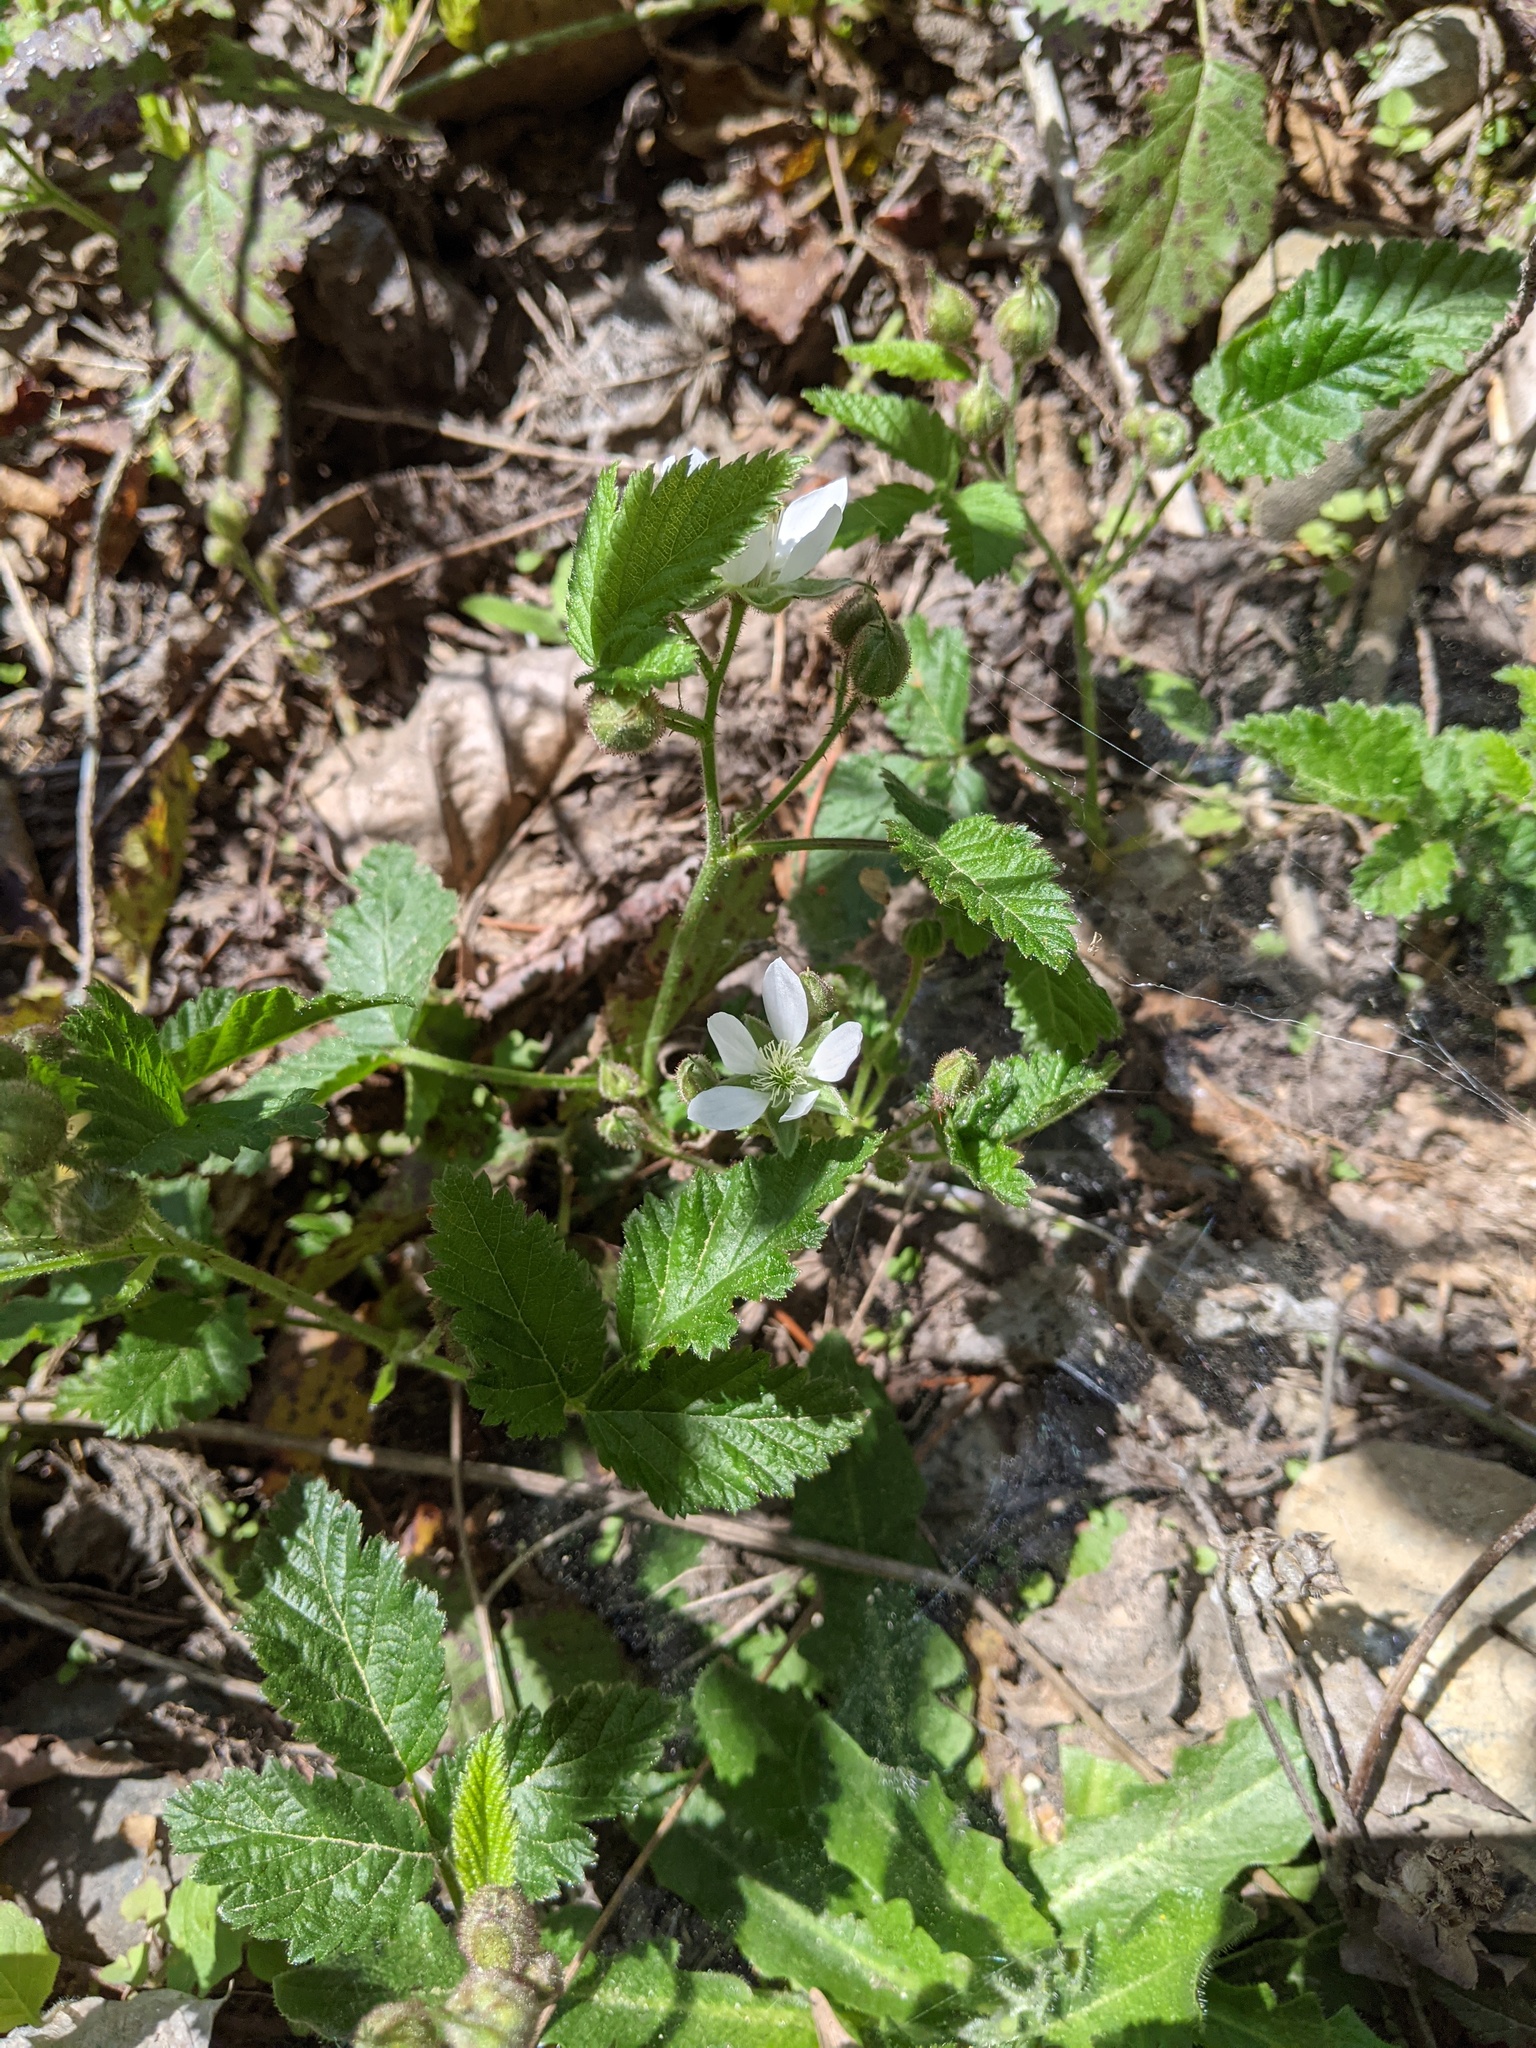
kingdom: Plantae
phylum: Tracheophyta
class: Magnoliopsida
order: Rosales
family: Rosaceae
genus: Rubus
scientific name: Rubus ursinus
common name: Pacific blackberry
